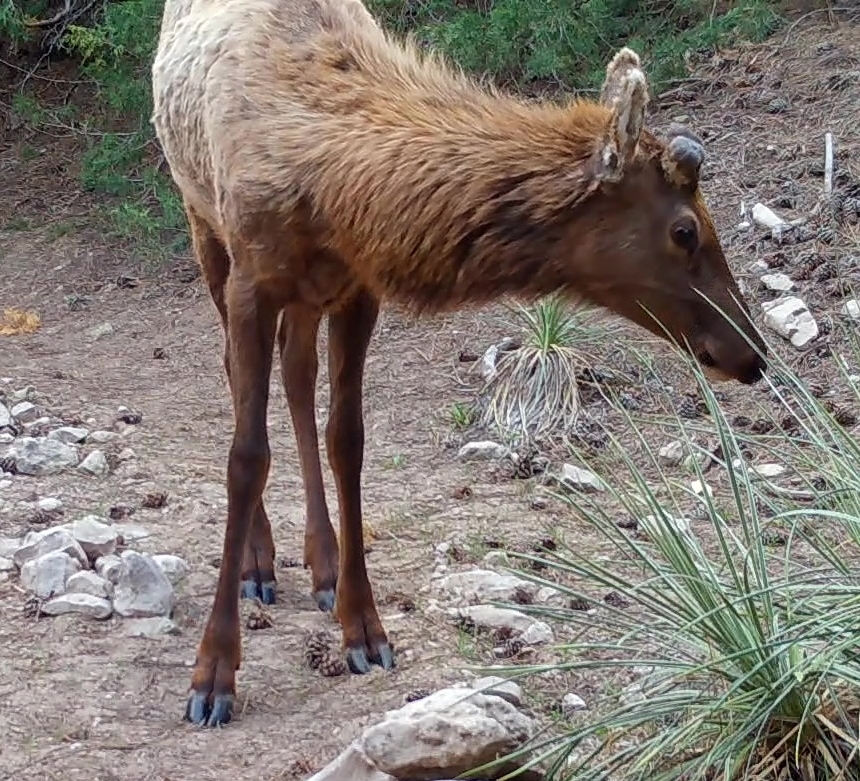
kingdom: Animalia
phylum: Chordata
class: Mammalia
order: Artiodactyla
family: Cervidae
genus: Cervus
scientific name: Cervus elaphus
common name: Red deer
